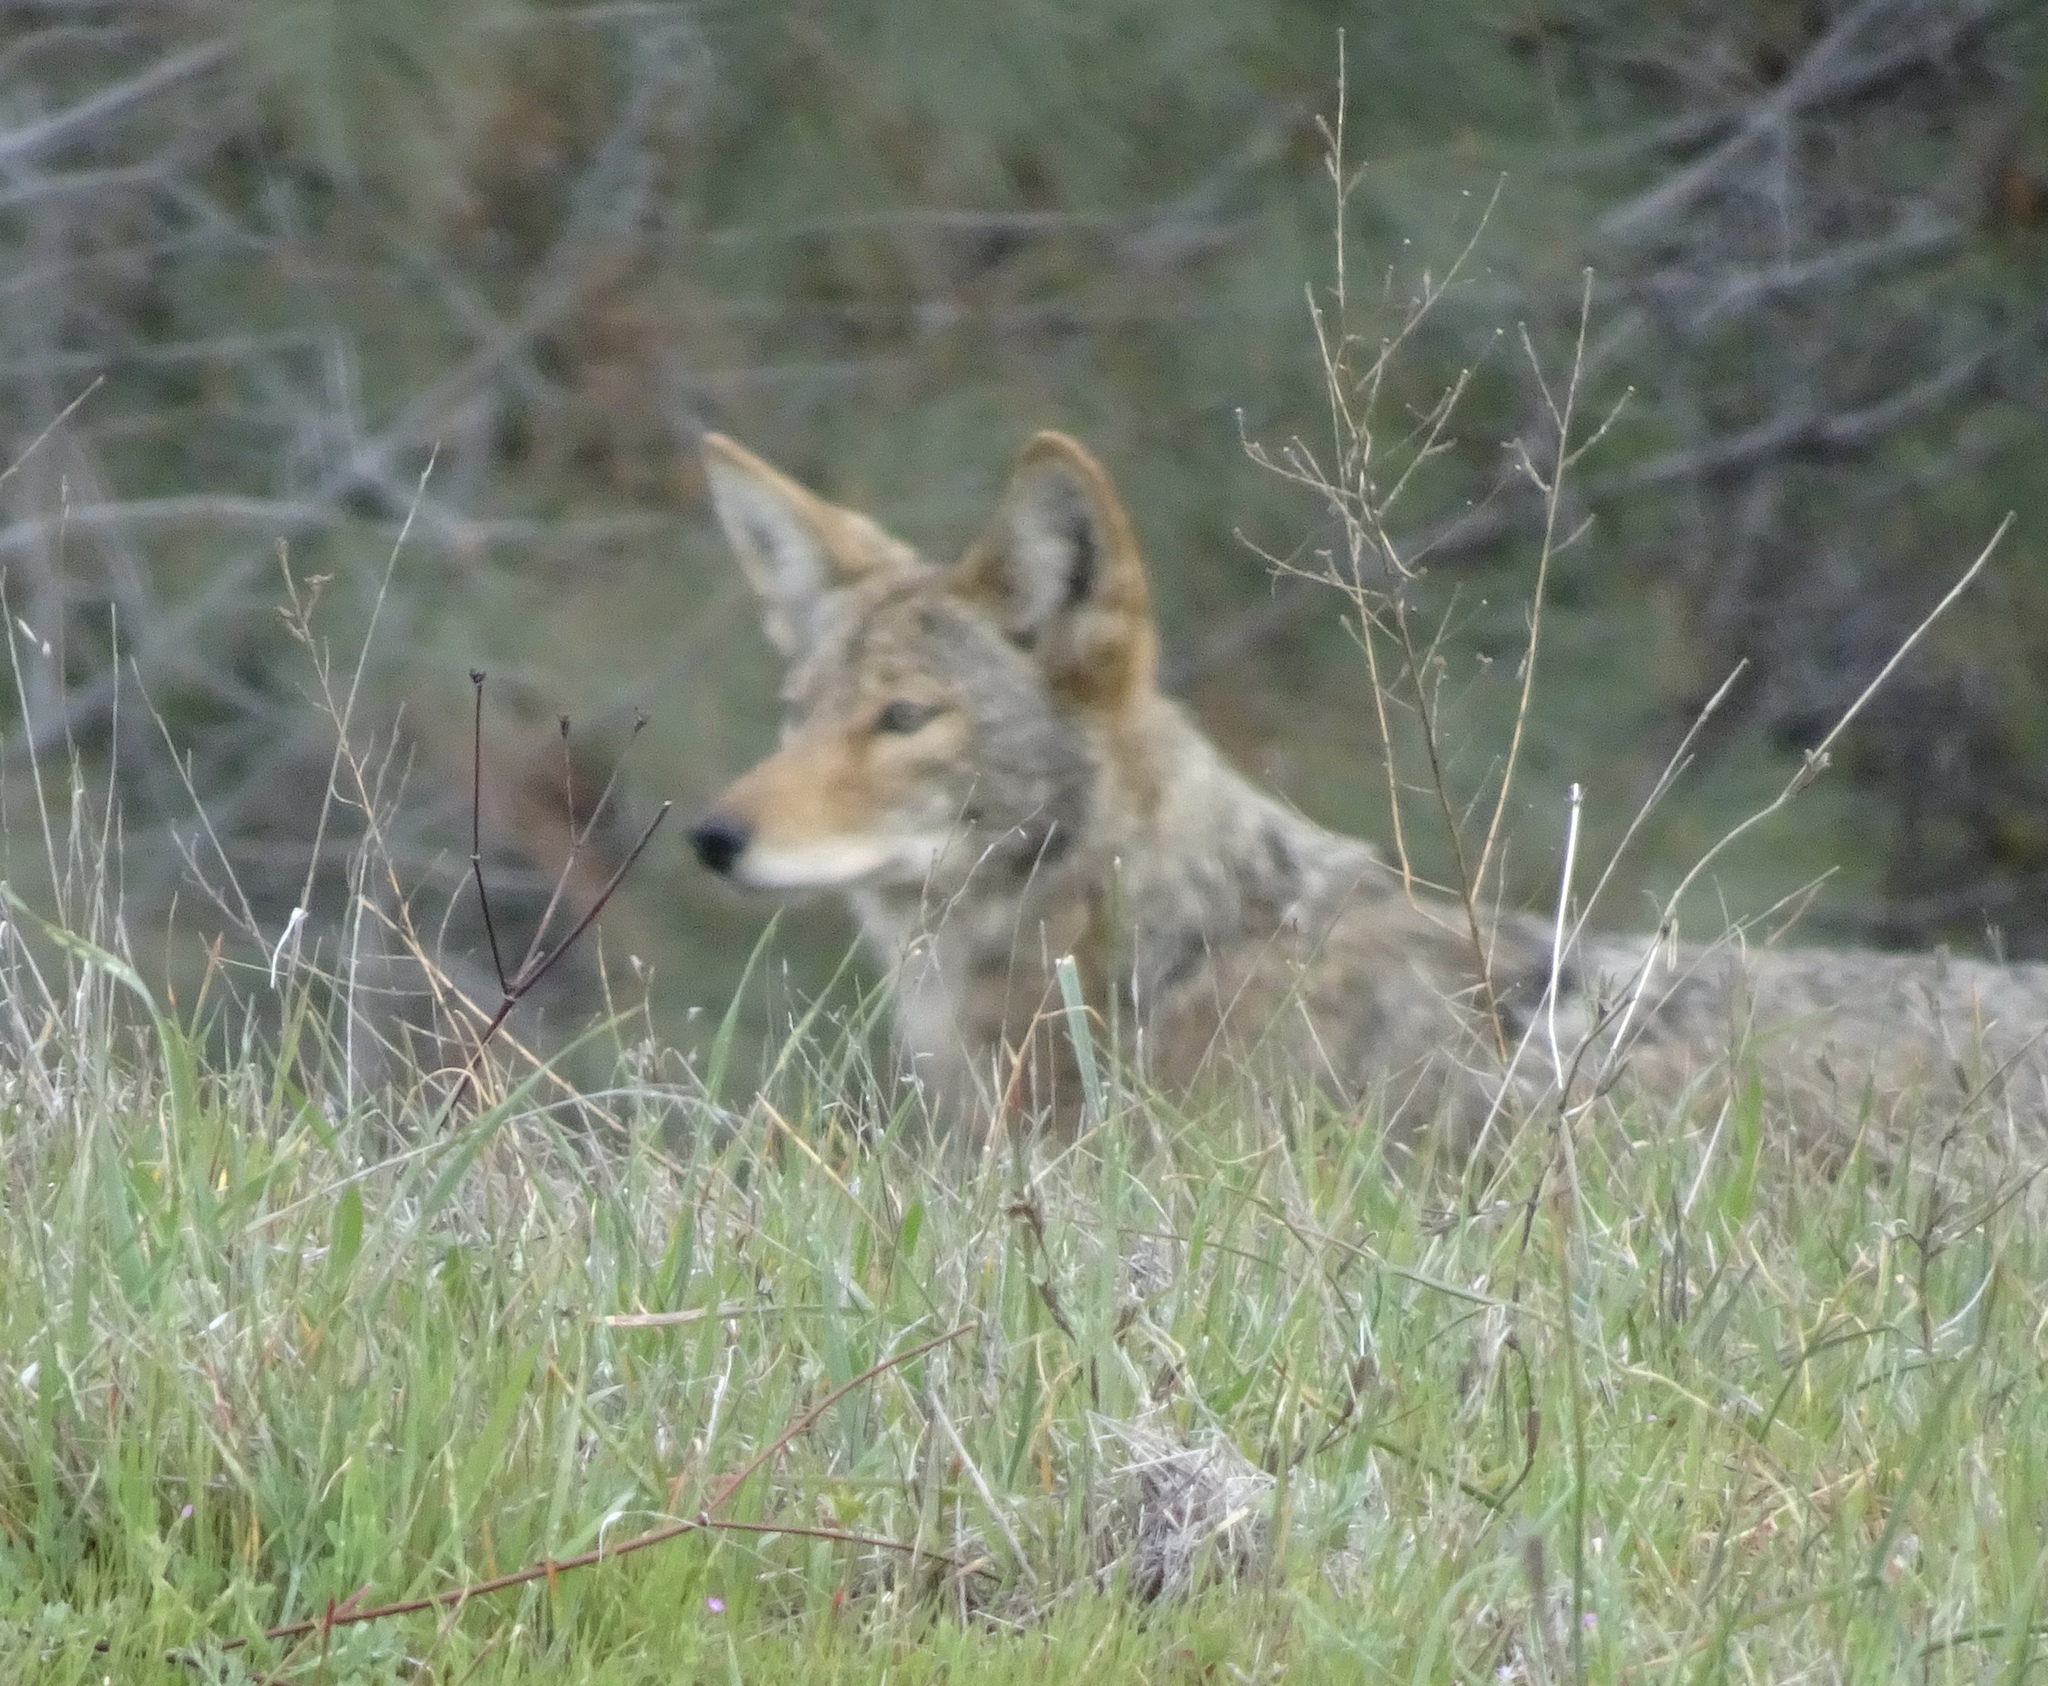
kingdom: Animalia
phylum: Chordata
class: Mammalia
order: Carnivora
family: Canidae
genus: Canis
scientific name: Canis latrans
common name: Coyote
